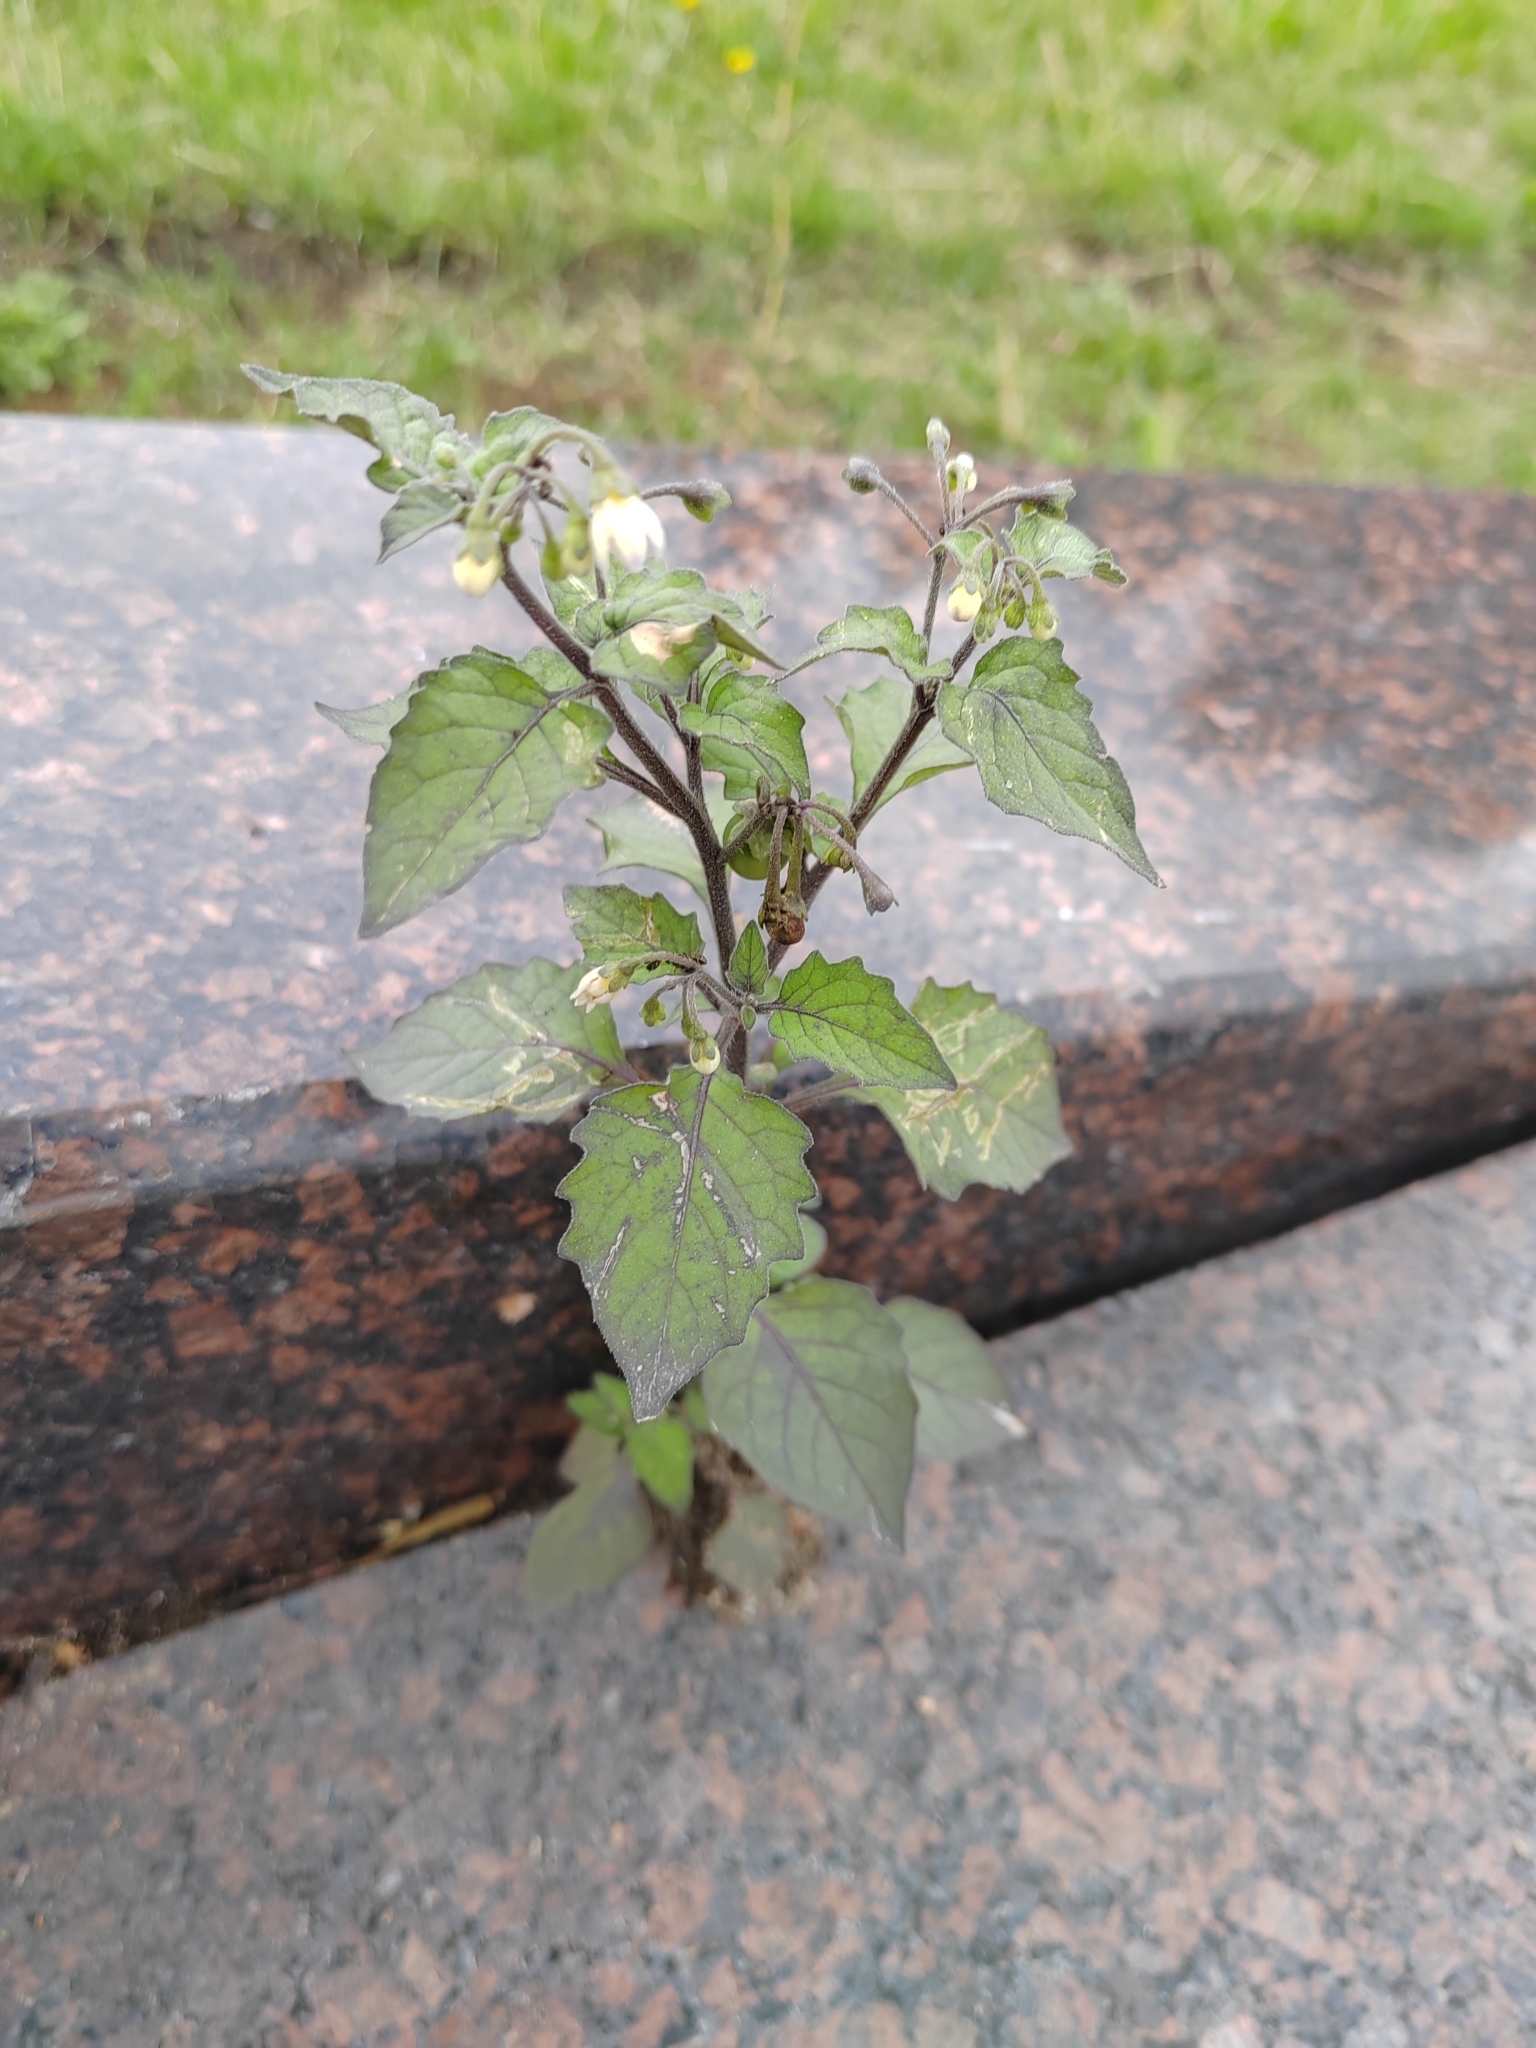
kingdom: Plantae
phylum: Tracheophyta
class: Magnoliopsida
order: Solanales
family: Solanaceae
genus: Solanum
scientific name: Solanum nigrum
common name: Black nightshade
